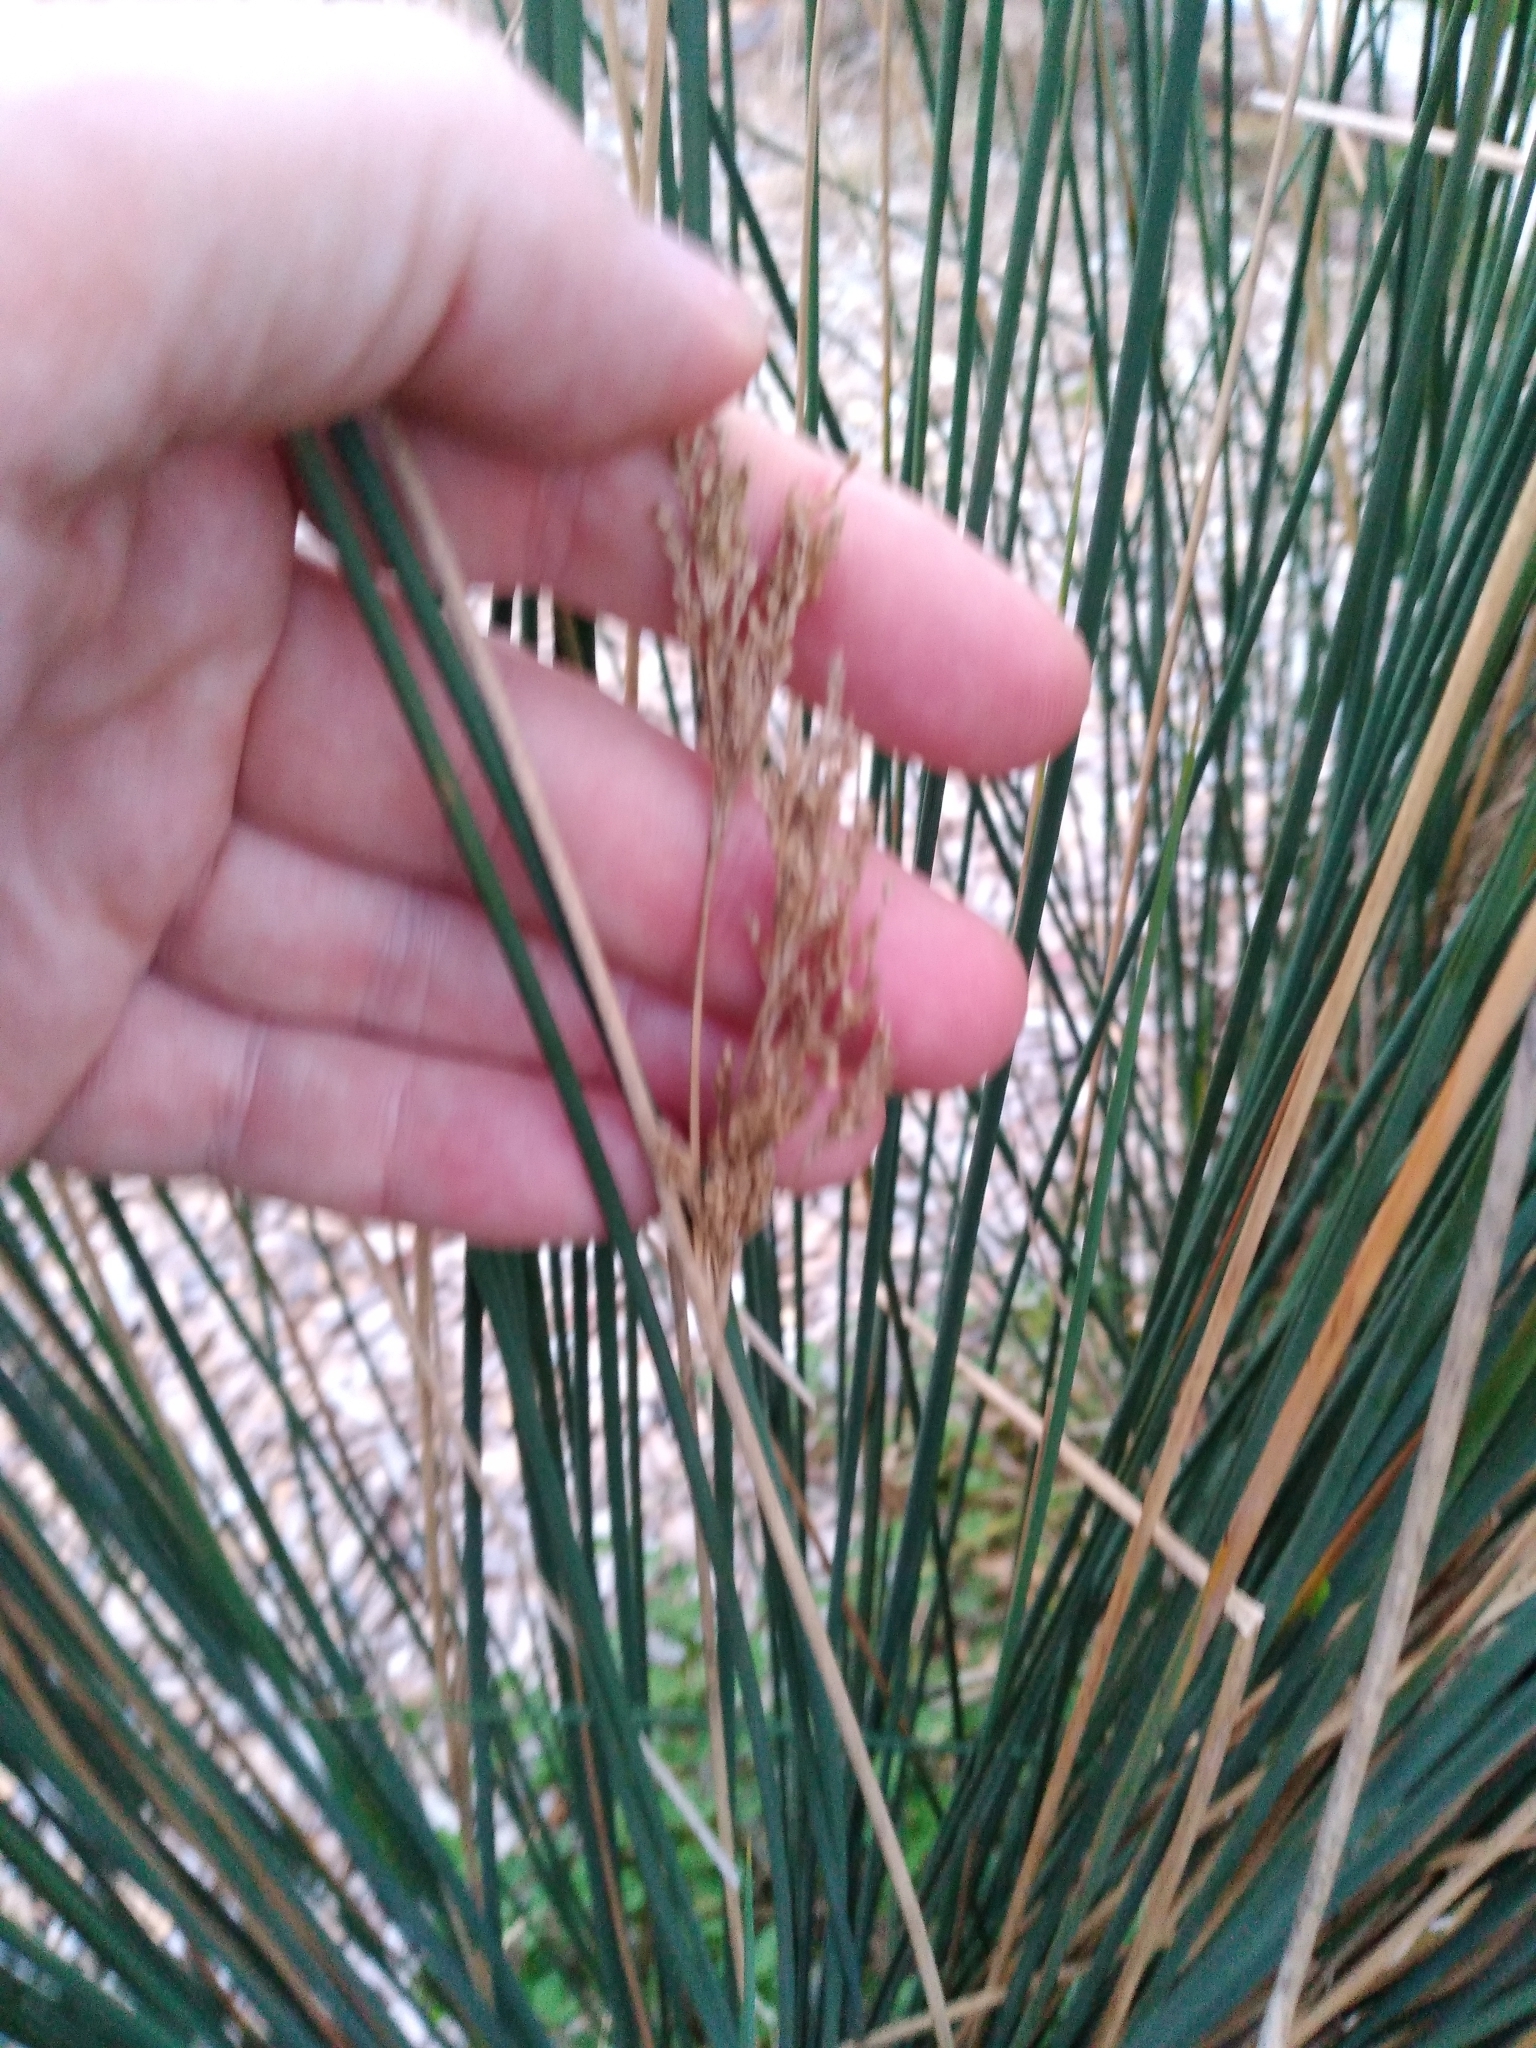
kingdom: Plantae
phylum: Tracheophyta
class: Liliopsida
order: Poales
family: Juncaceae
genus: Juncus
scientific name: Juncus sarophorus
